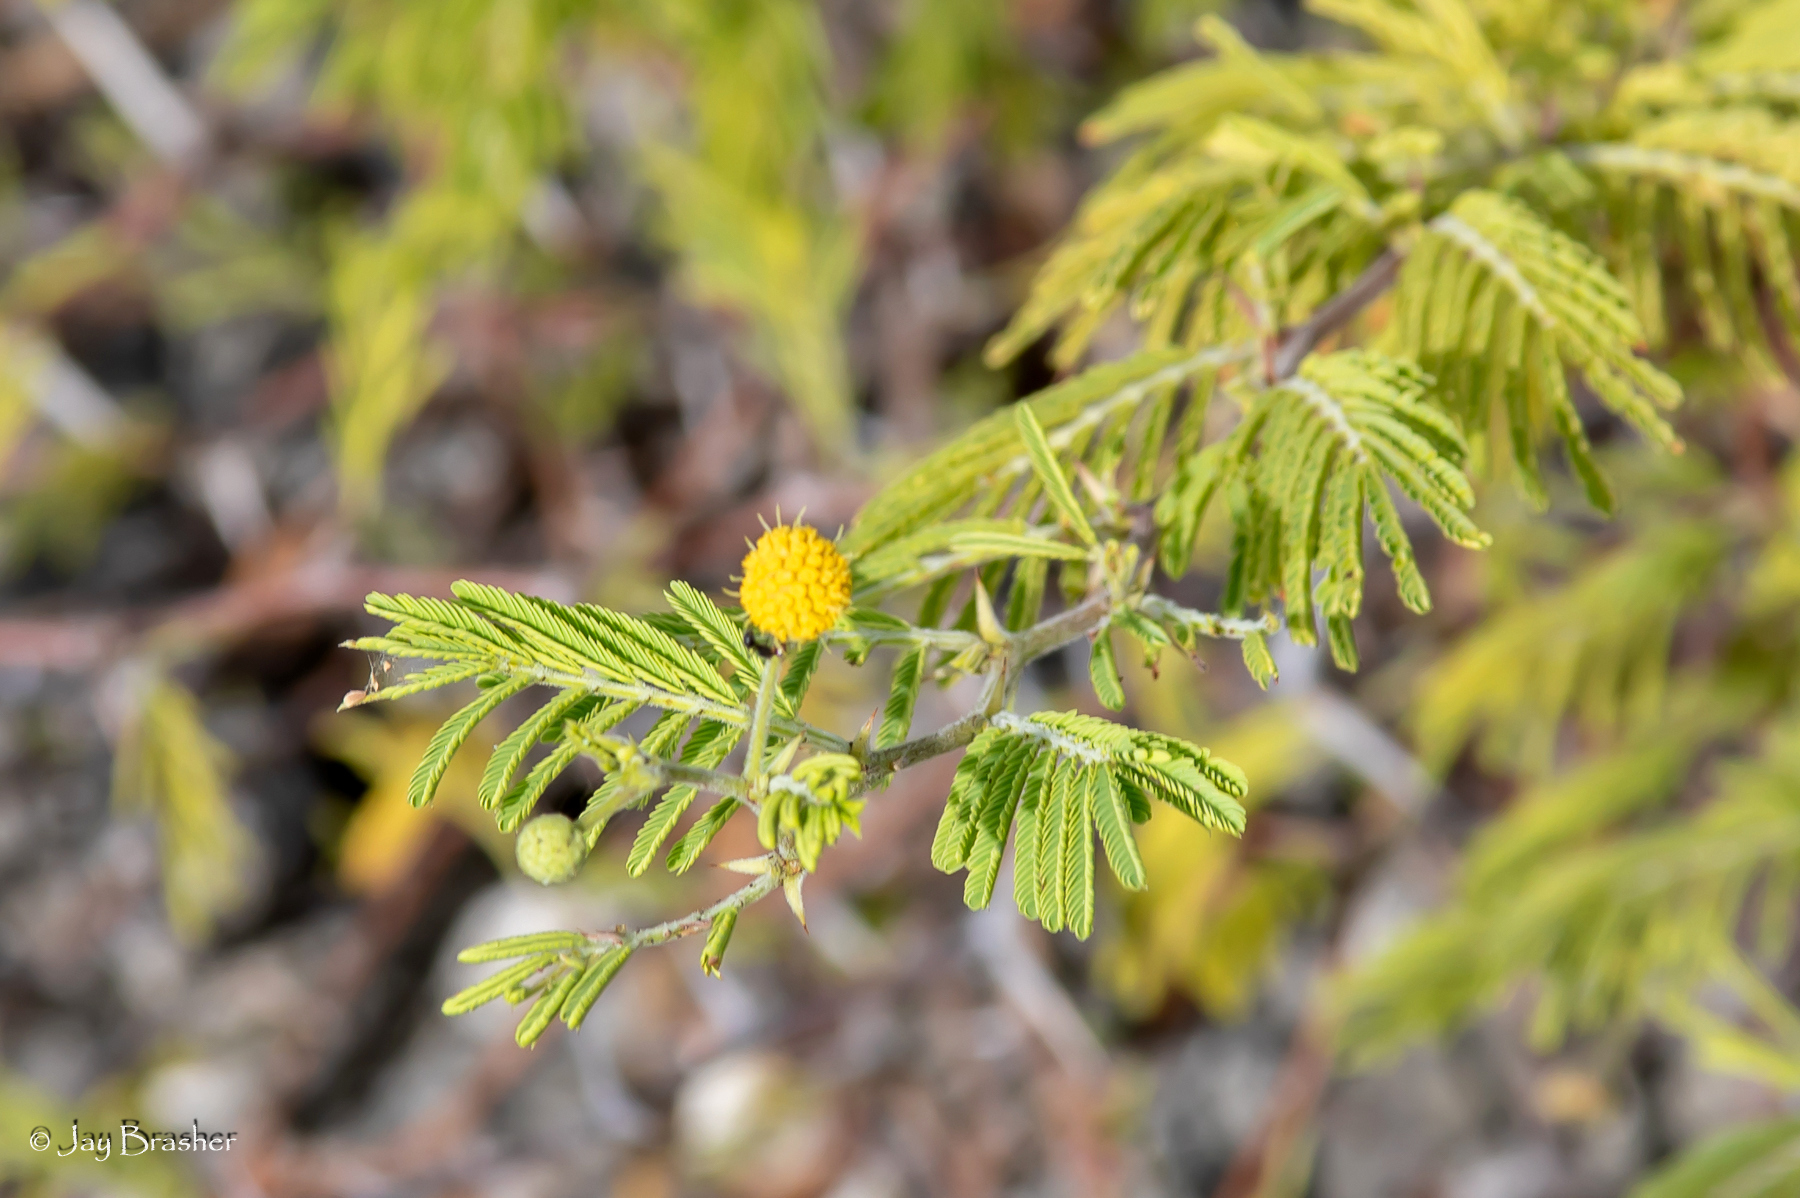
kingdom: Plantae
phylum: Tracheophyta
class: Magnoliopsida
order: Fabales
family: Fabaceae
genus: Vachellia
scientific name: Vachellia tortuosa
